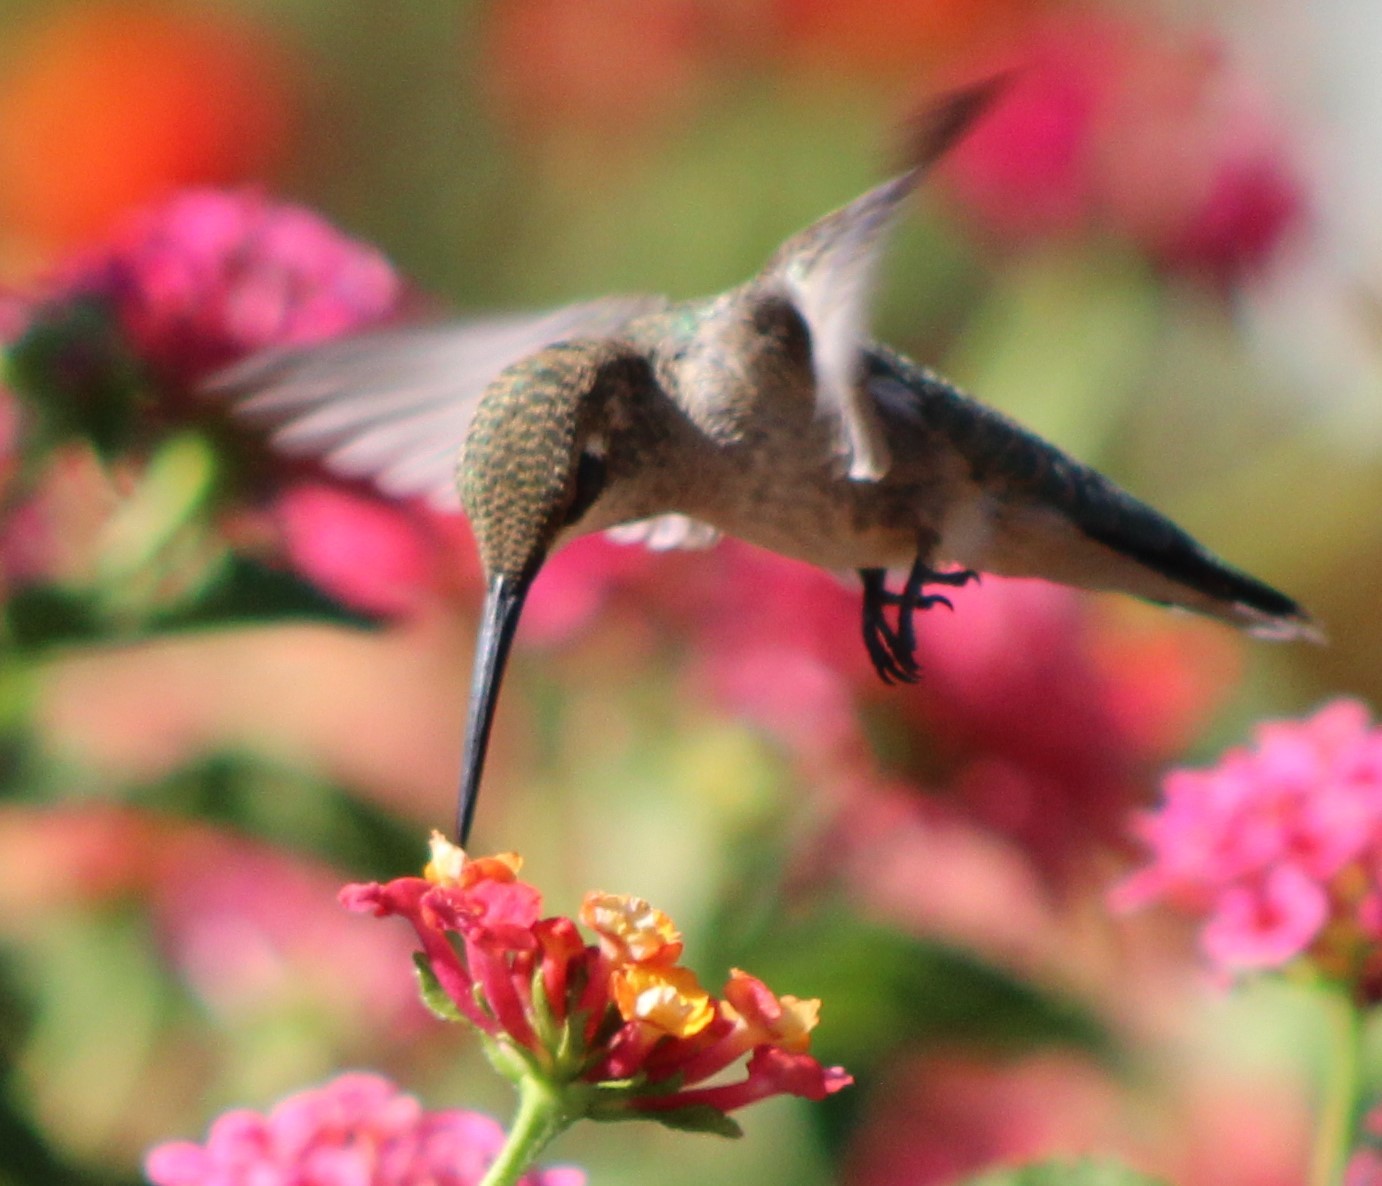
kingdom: Animalia
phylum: Chordata
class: Aves
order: Apodiformes
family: Trochilidae
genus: Archilochus
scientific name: Archilochus alexandri
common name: Black-chinned hummingbird
